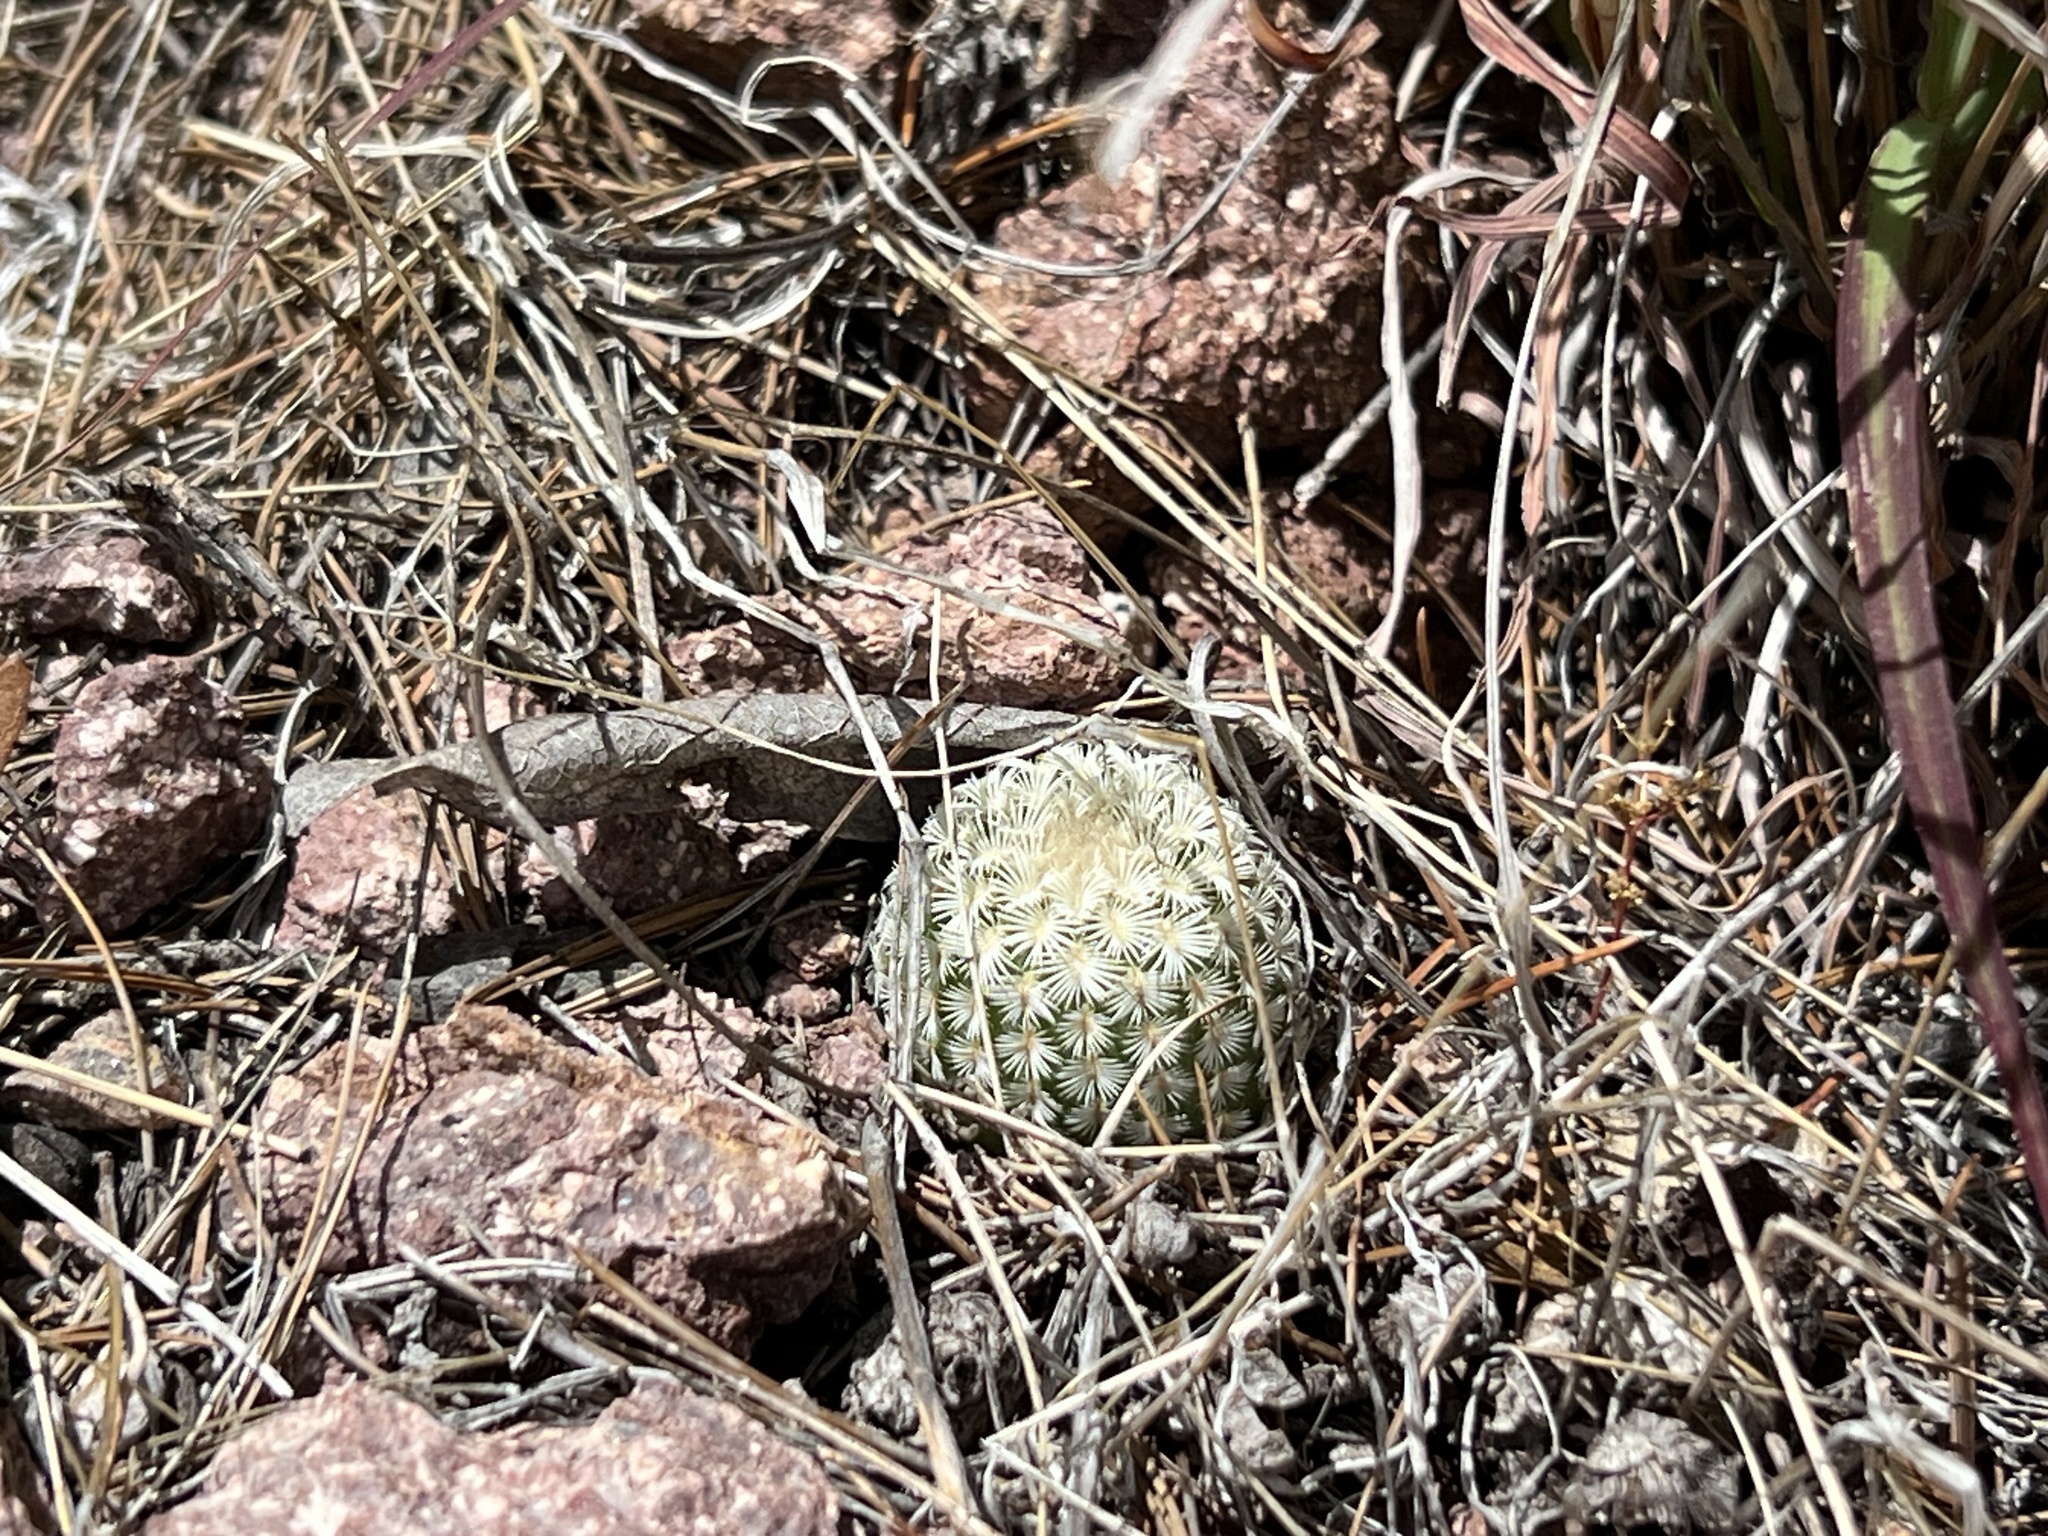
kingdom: Plantae
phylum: Tracheophyta
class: Magnoliopsida
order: Caryophyllales
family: Cactaceae
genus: Echinocereus
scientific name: Echinocereus rigidissimus
